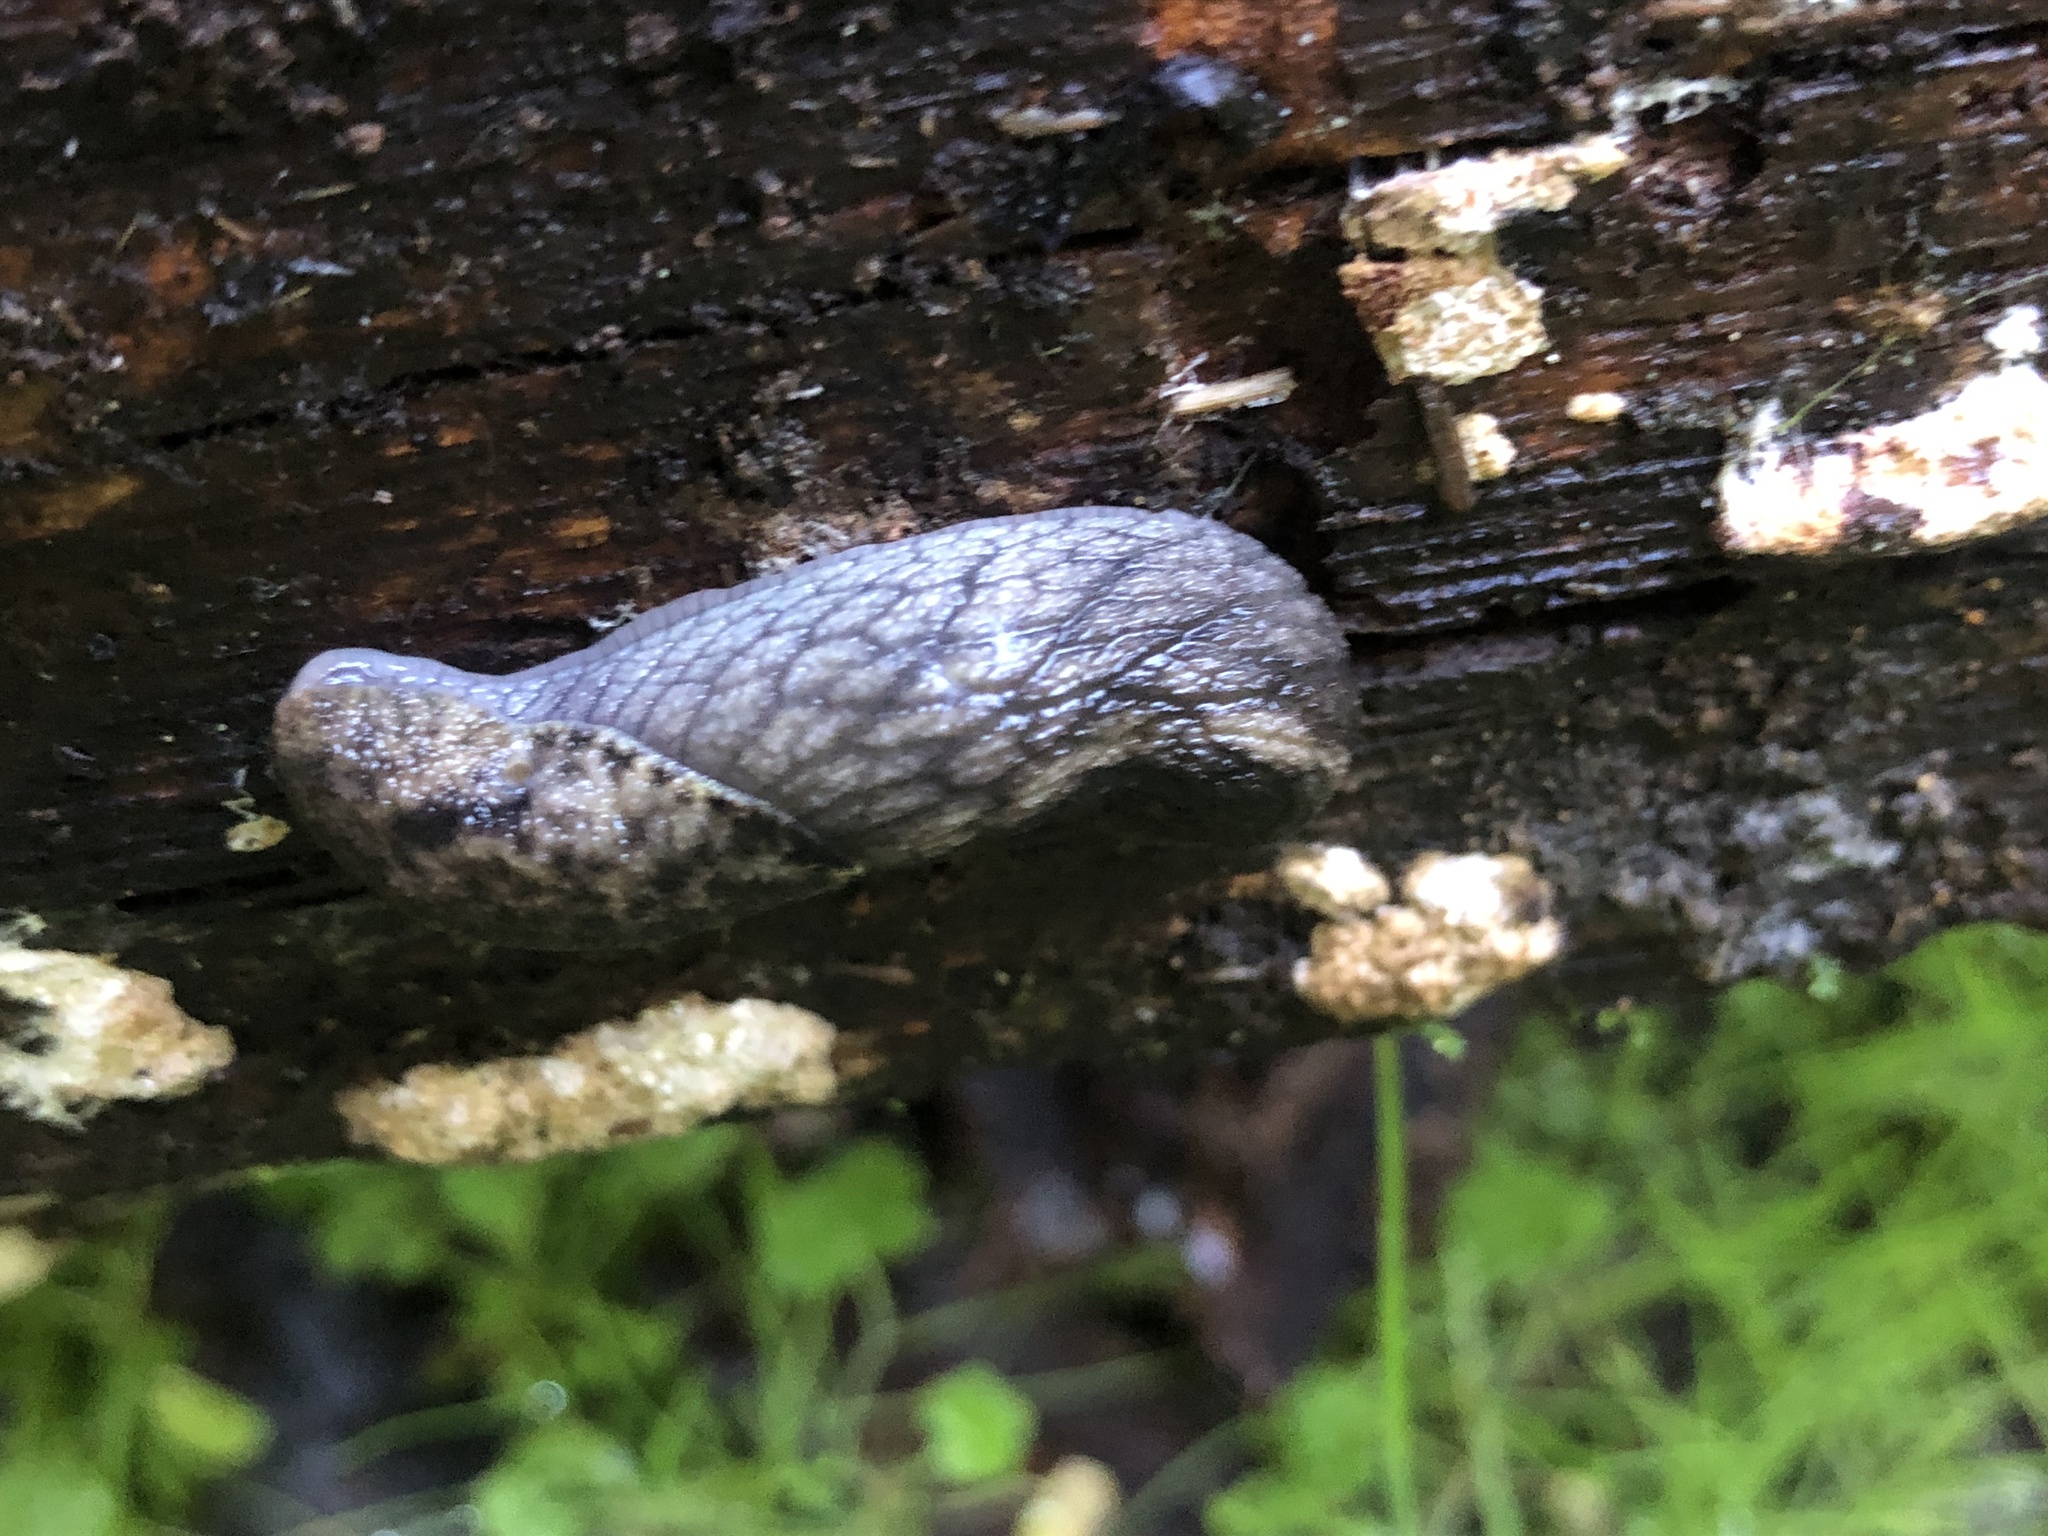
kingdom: Animalia
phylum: Mollusca
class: Gastropoda
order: Stylommatophora
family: Ariolimacidae
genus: Prophysaon
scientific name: Prophysaon andersonii
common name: Reticulate taildropper
